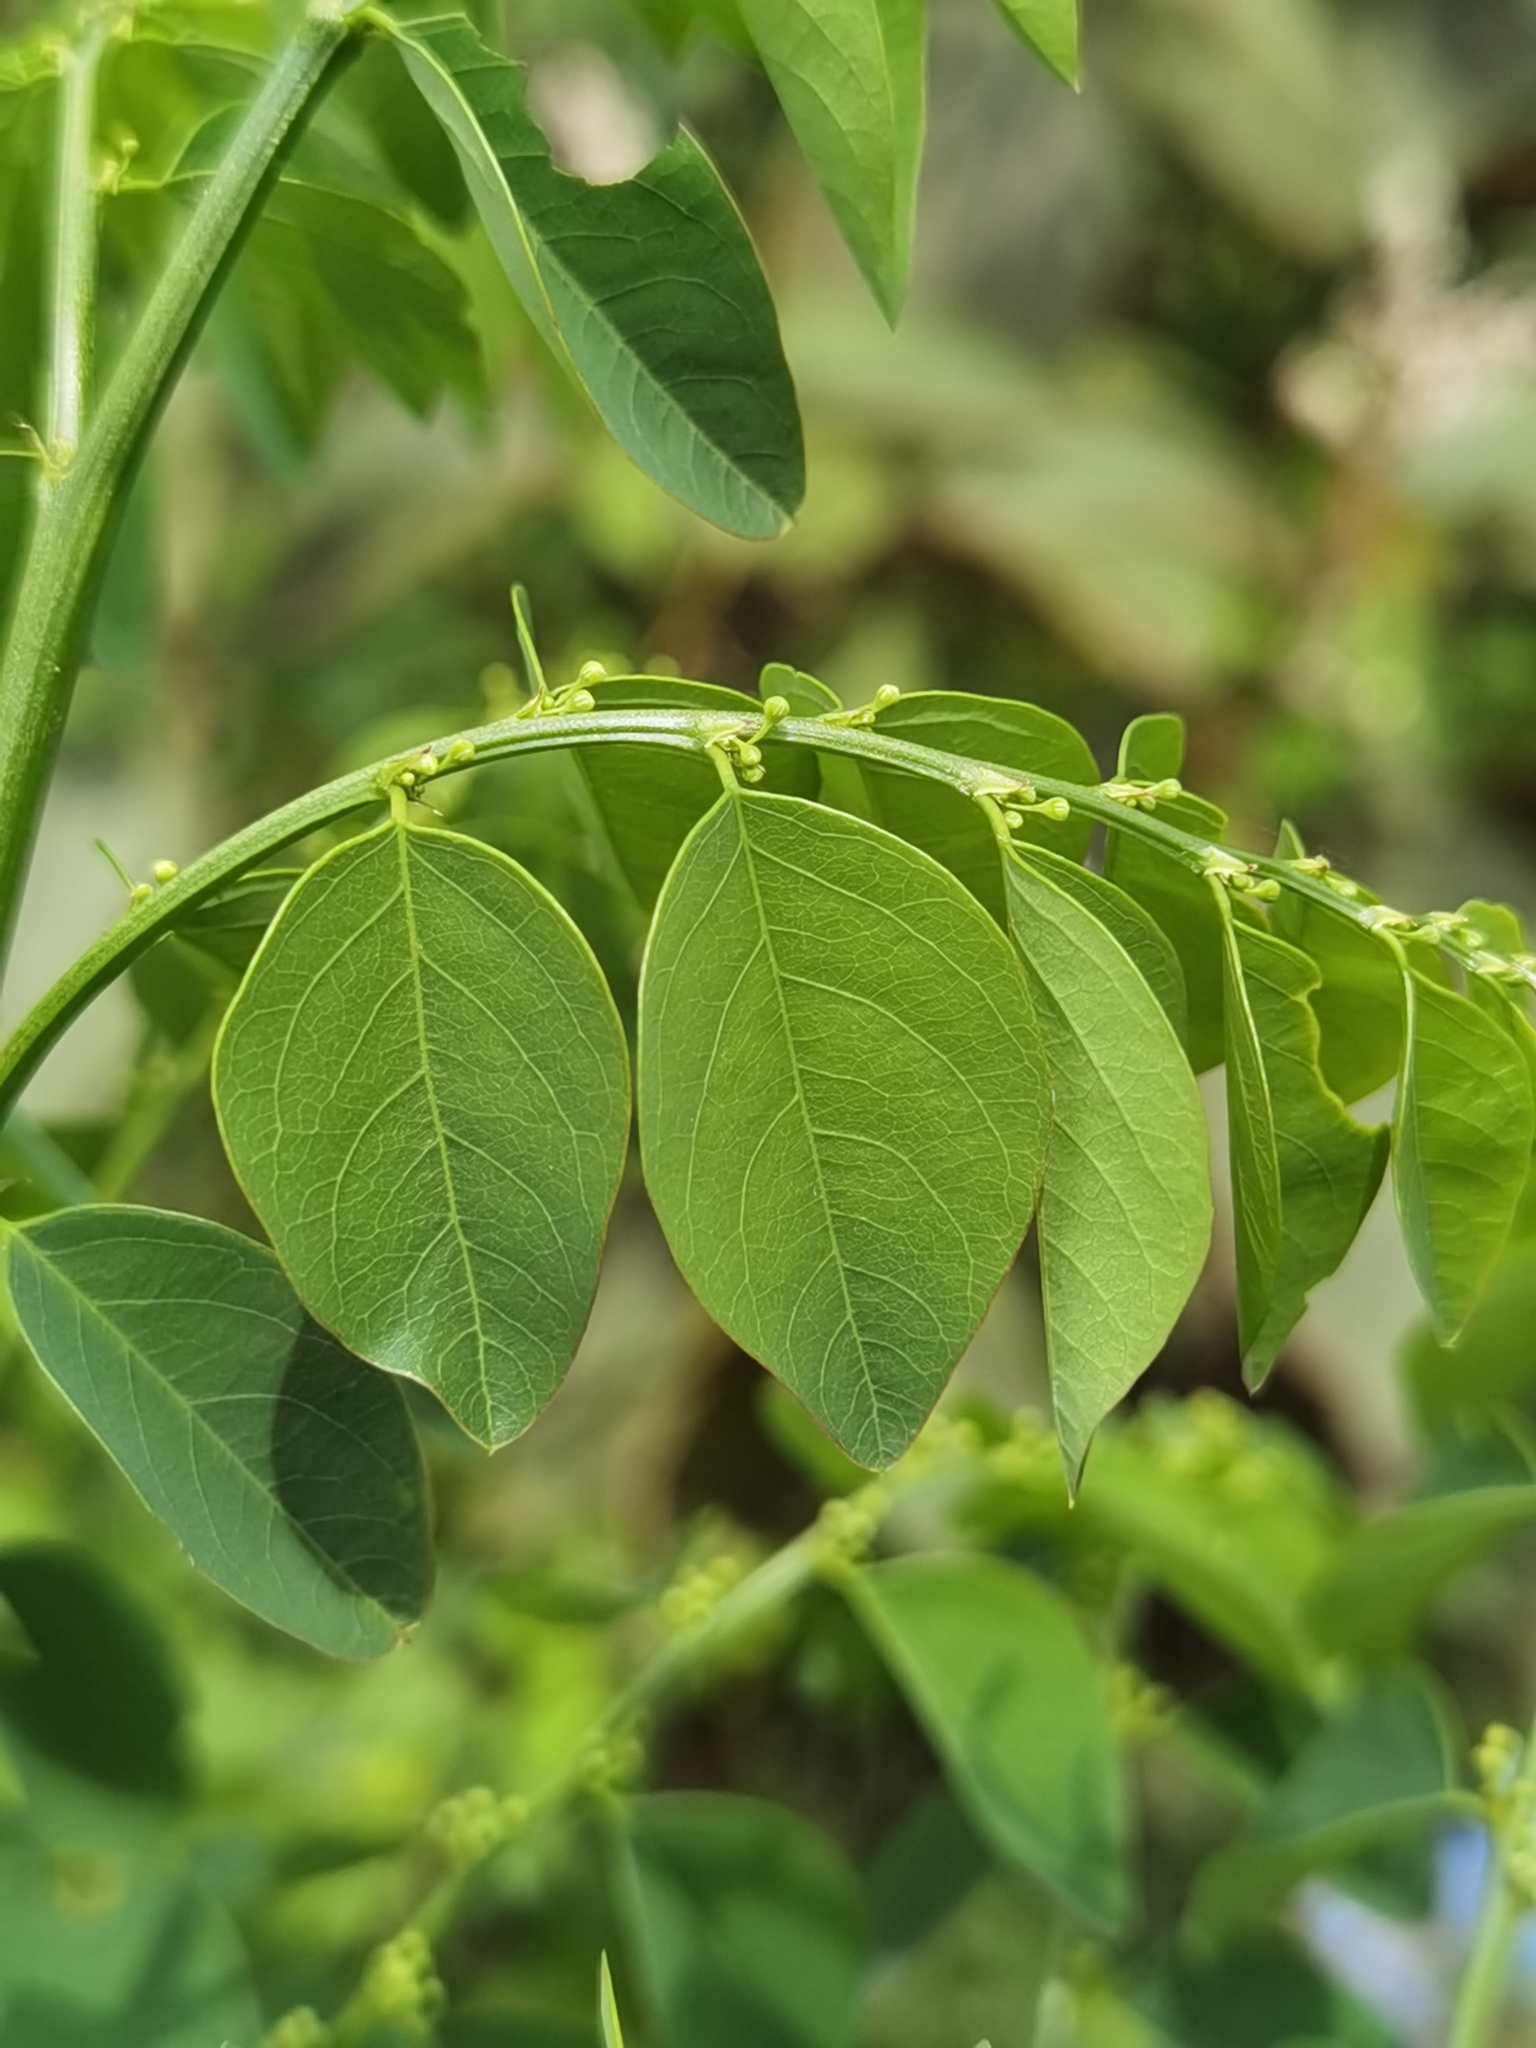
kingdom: Plantae
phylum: Tracheophyta
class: Magnoliopsida
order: Malpighiales
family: Phyllanthaceae
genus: Phyllanthus
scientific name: Phyllanthus mocinoanus
